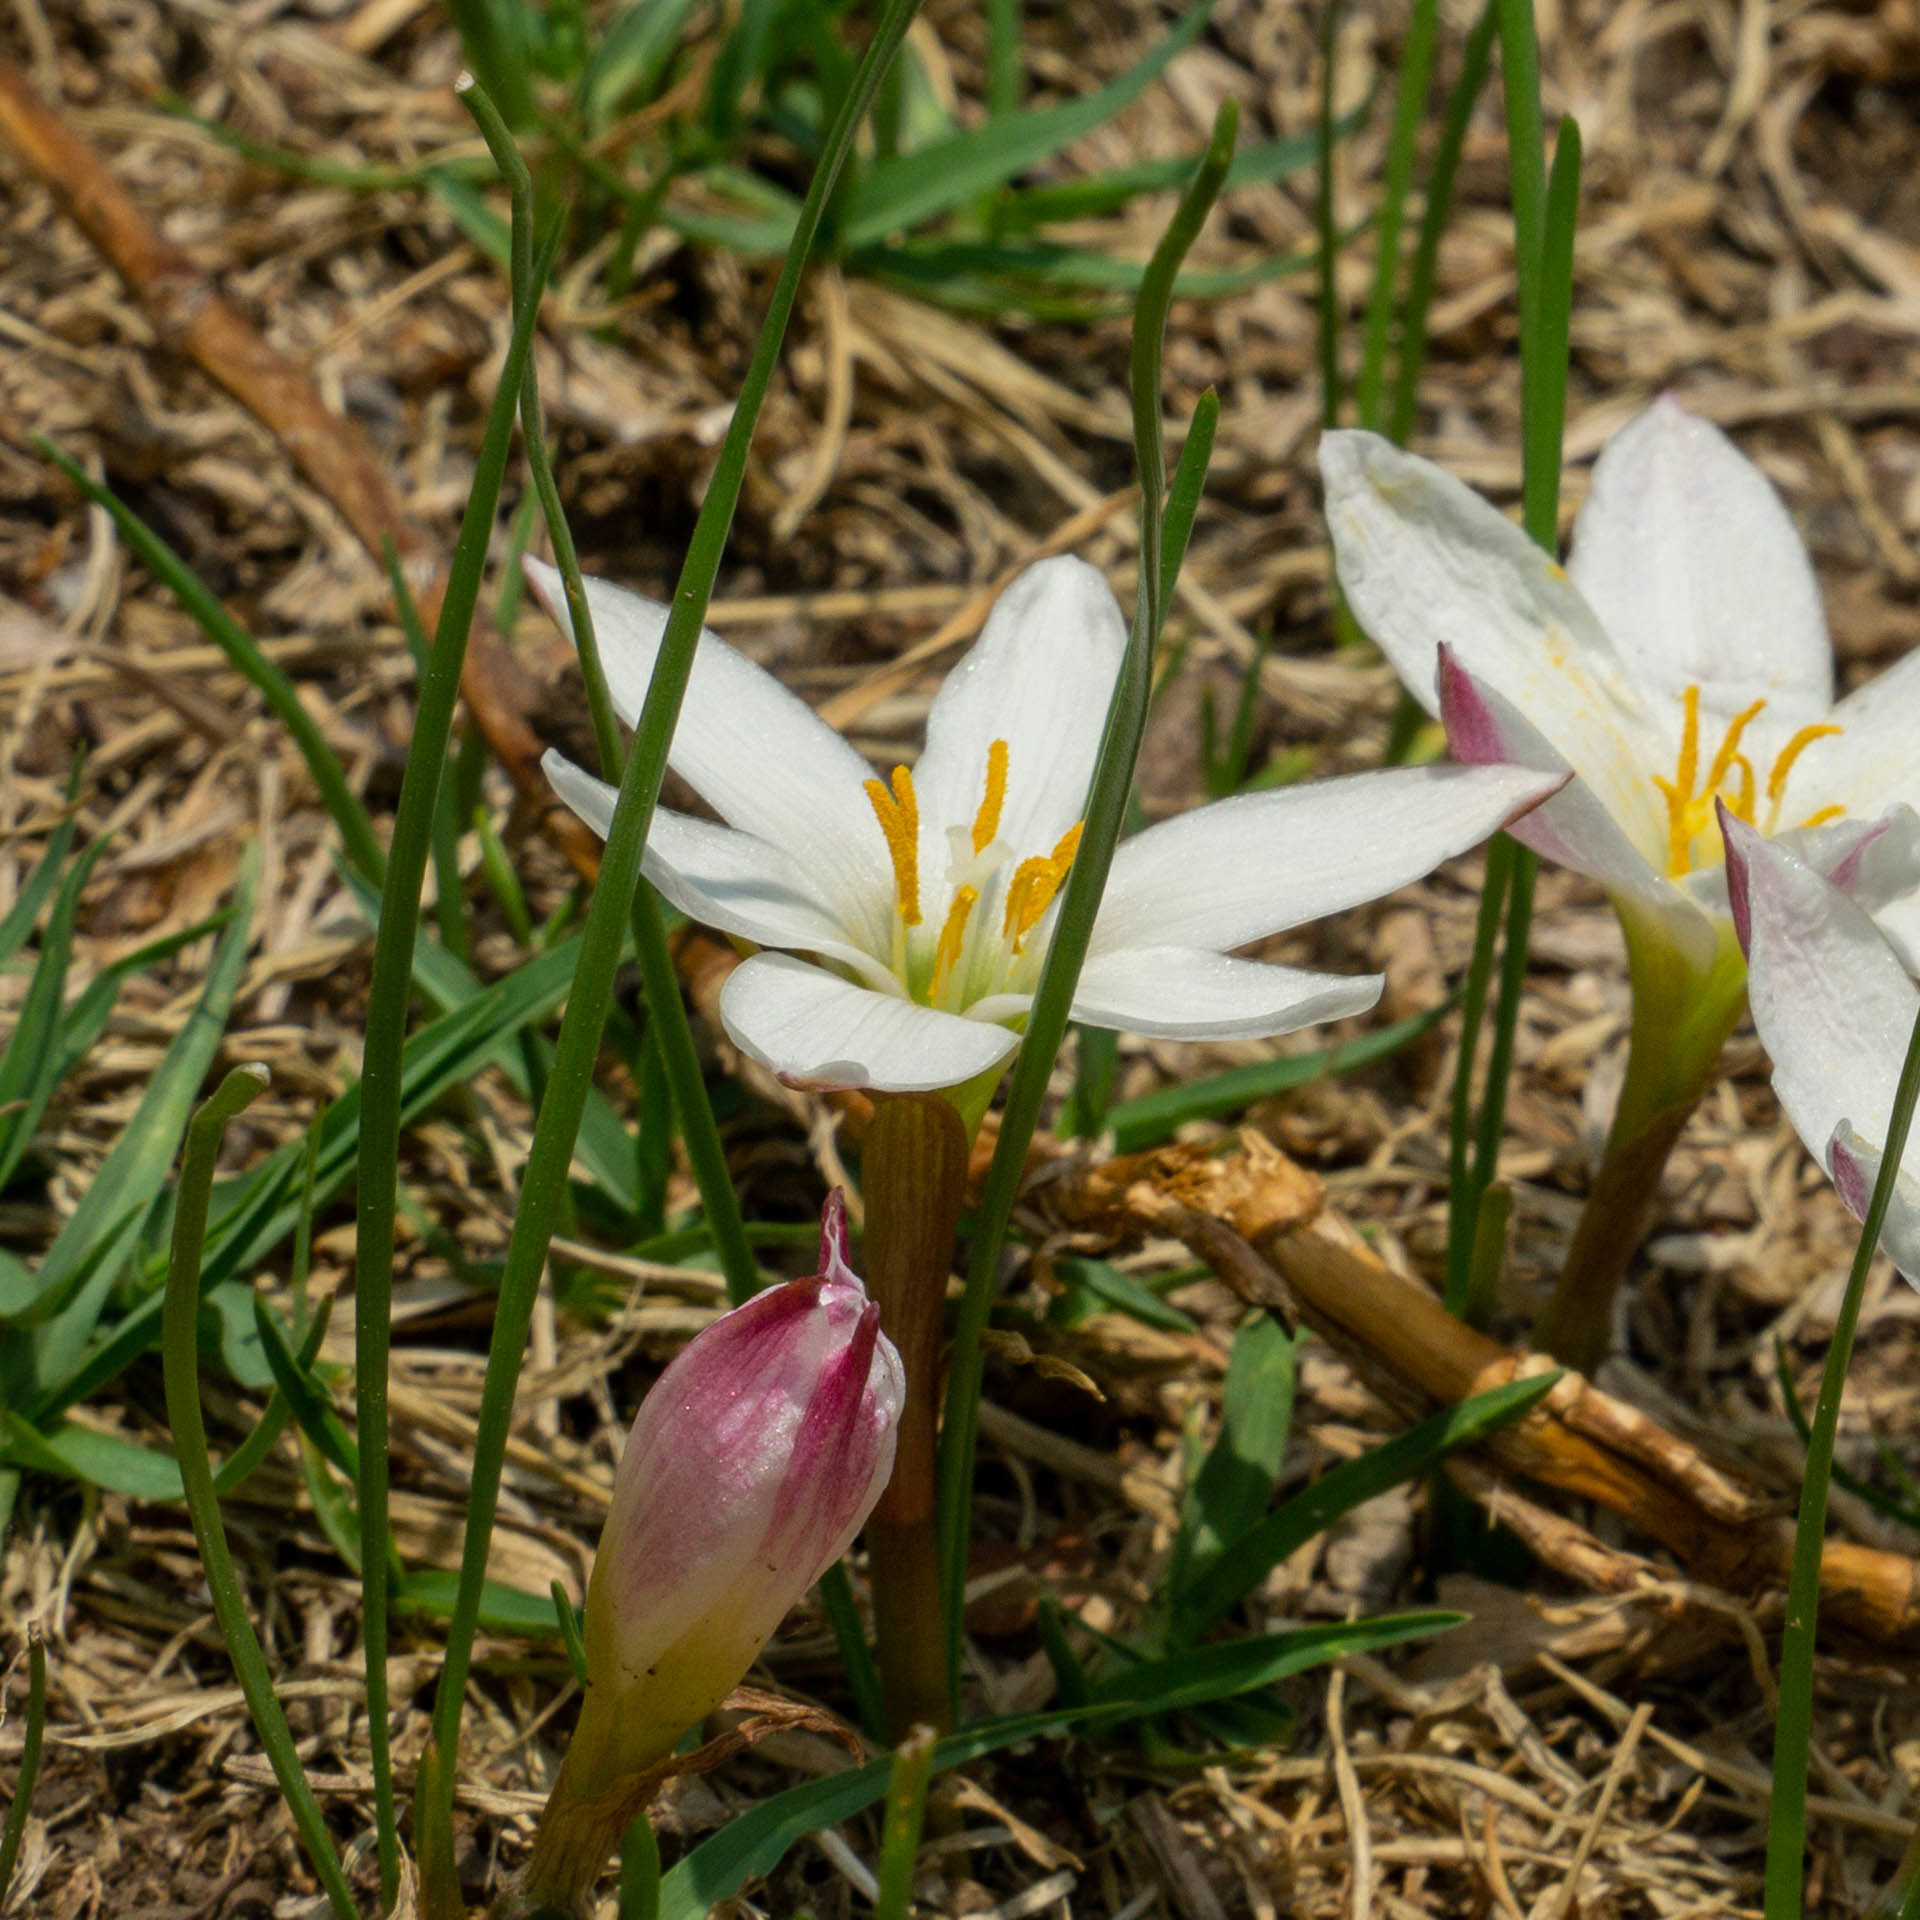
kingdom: Plantae
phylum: Tracheophyta
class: Liliopsida
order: Asparagales
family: Amaryllidaceae
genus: Zephyranthes
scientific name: Zephyranthes fosteri
